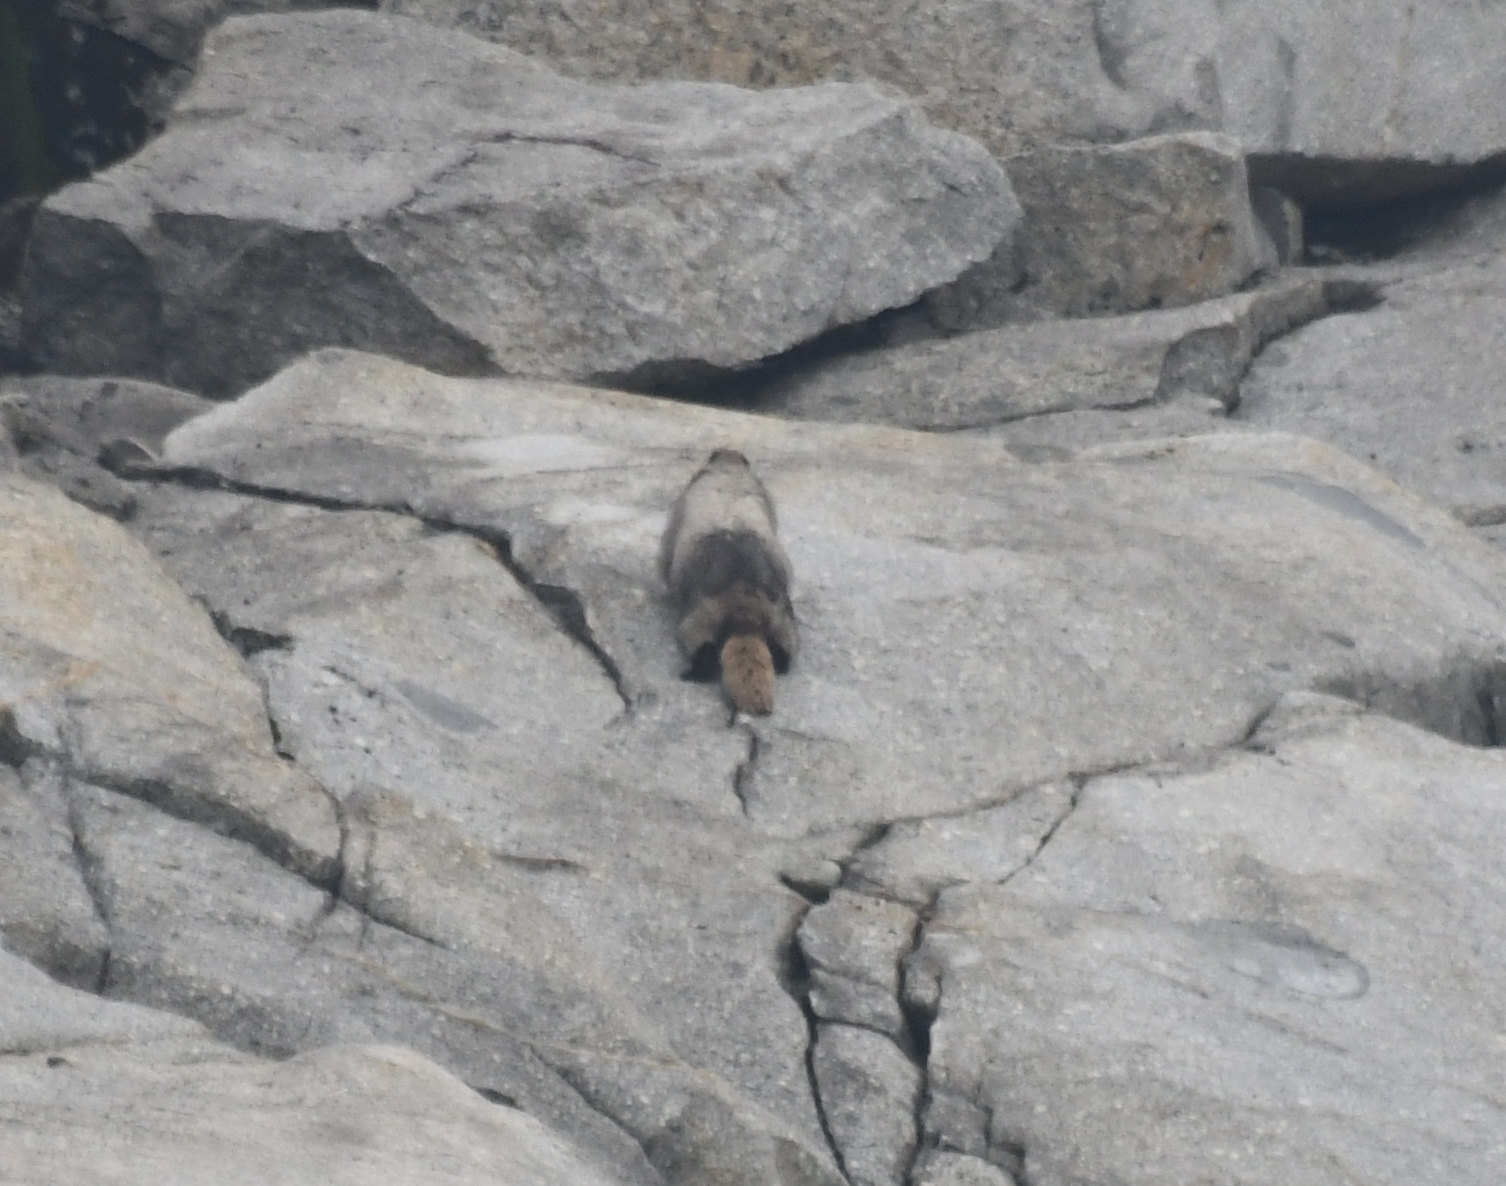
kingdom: Animalia
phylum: Chordata
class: Mammalia
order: Rodentia
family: Sciuridae
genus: Marmota
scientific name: Marmota caligata
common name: Hoary marmot
